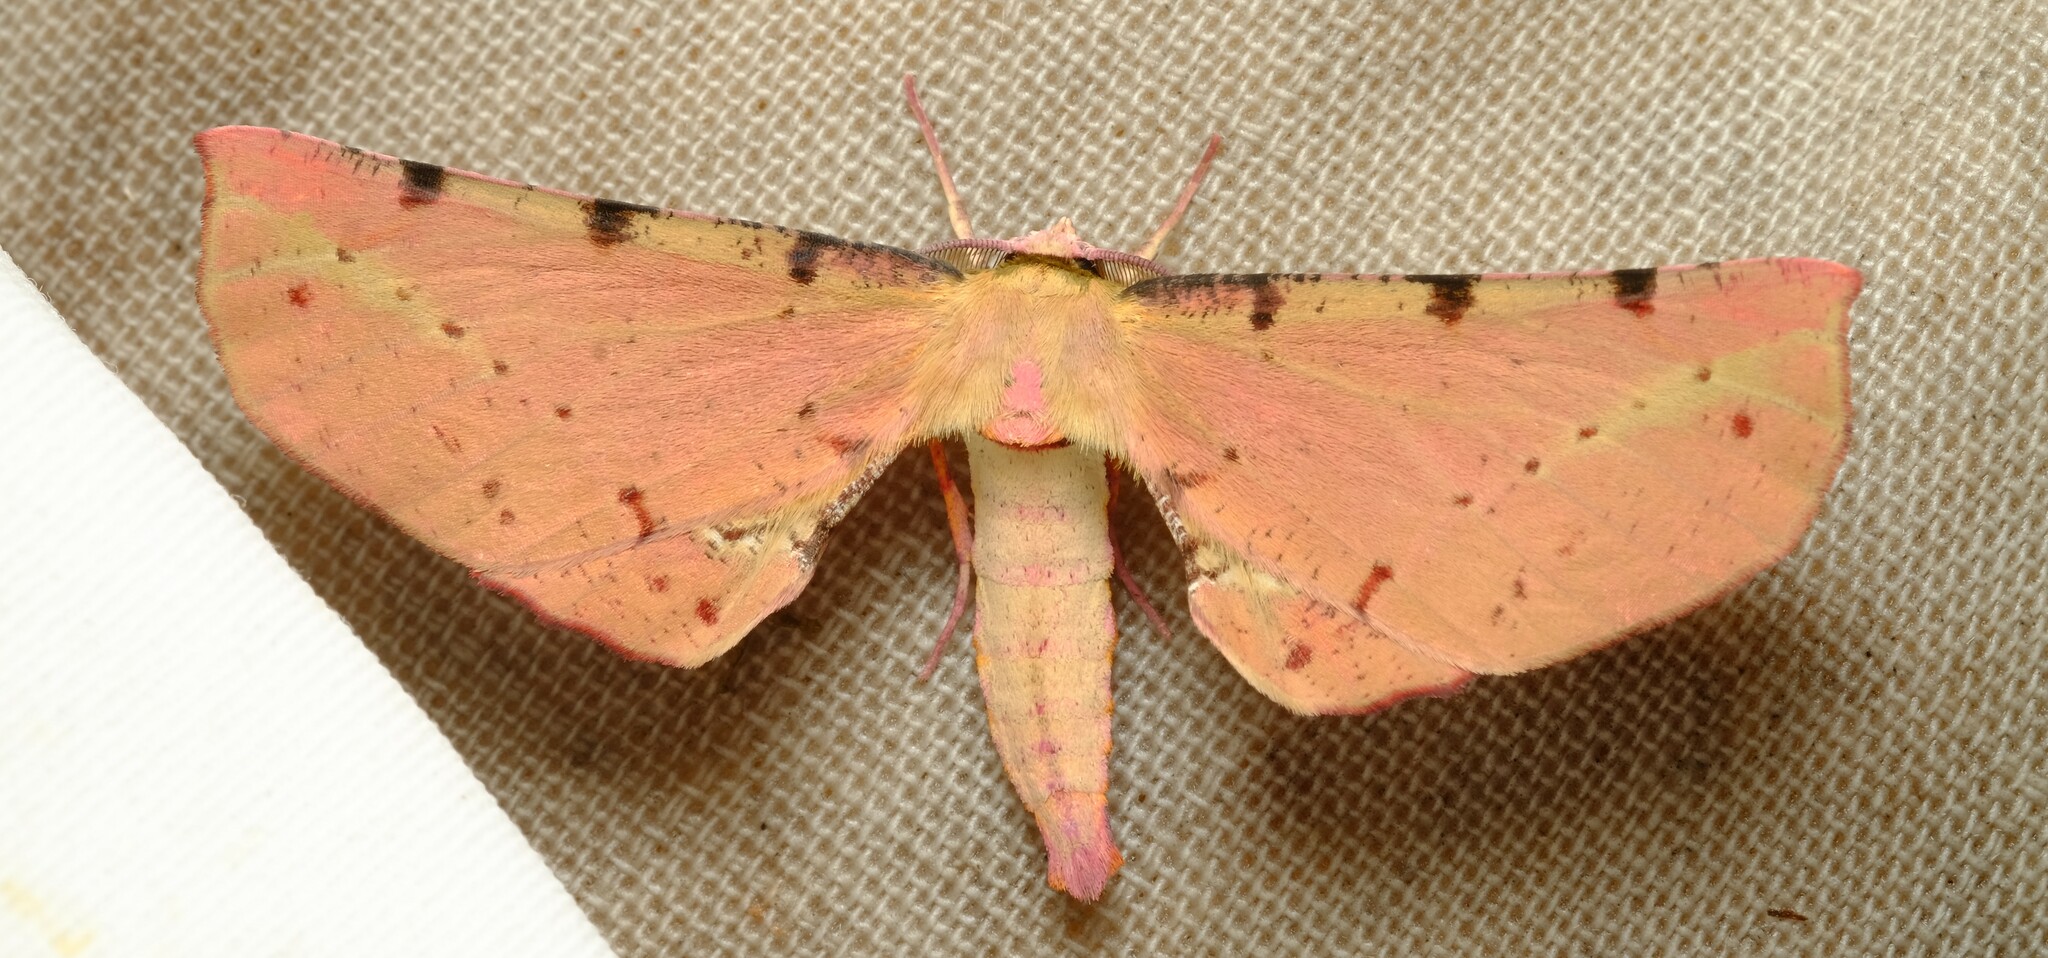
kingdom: Animalia
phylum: Arthropoda
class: Insecta
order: Lepidoptera
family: Geometridae
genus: Parepisparis
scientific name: Parepisparis lutosaria
